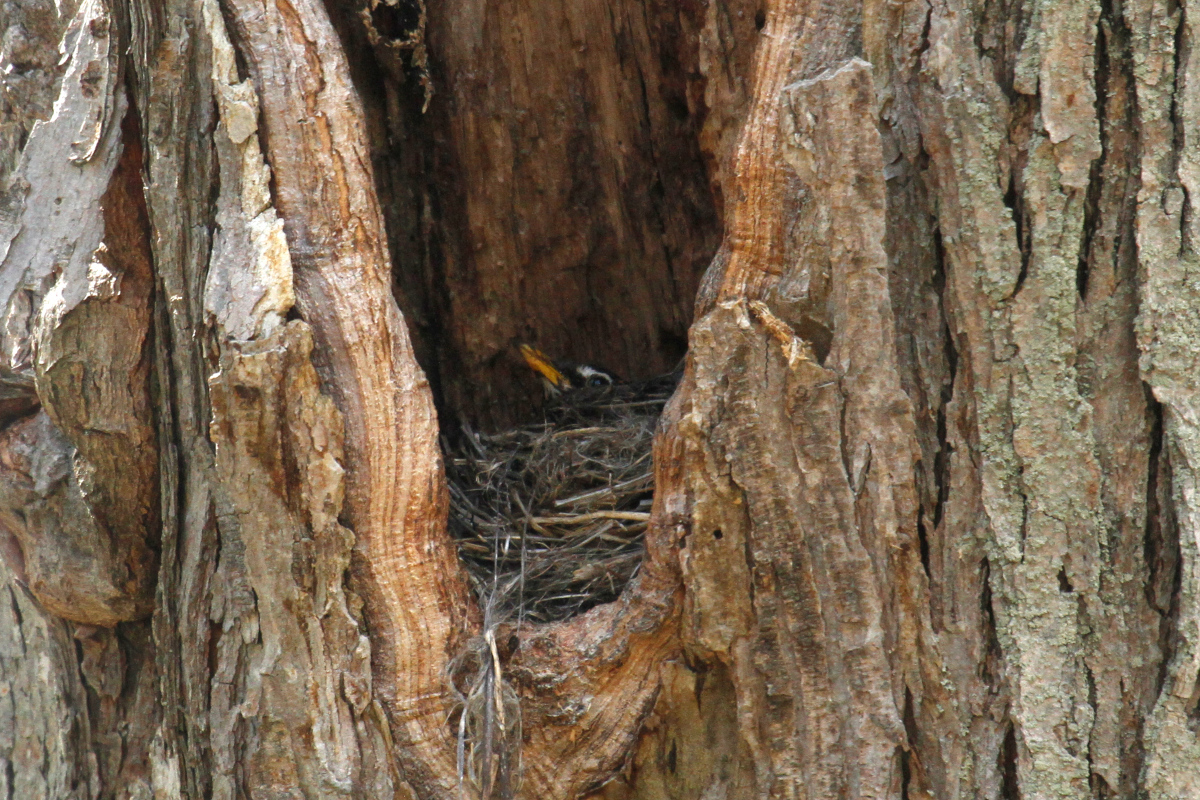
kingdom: Animalia
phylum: Chordata
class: Aves
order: Passeriformes
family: Turdidae
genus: Turdus
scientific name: Turdus migratorius
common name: American robin
